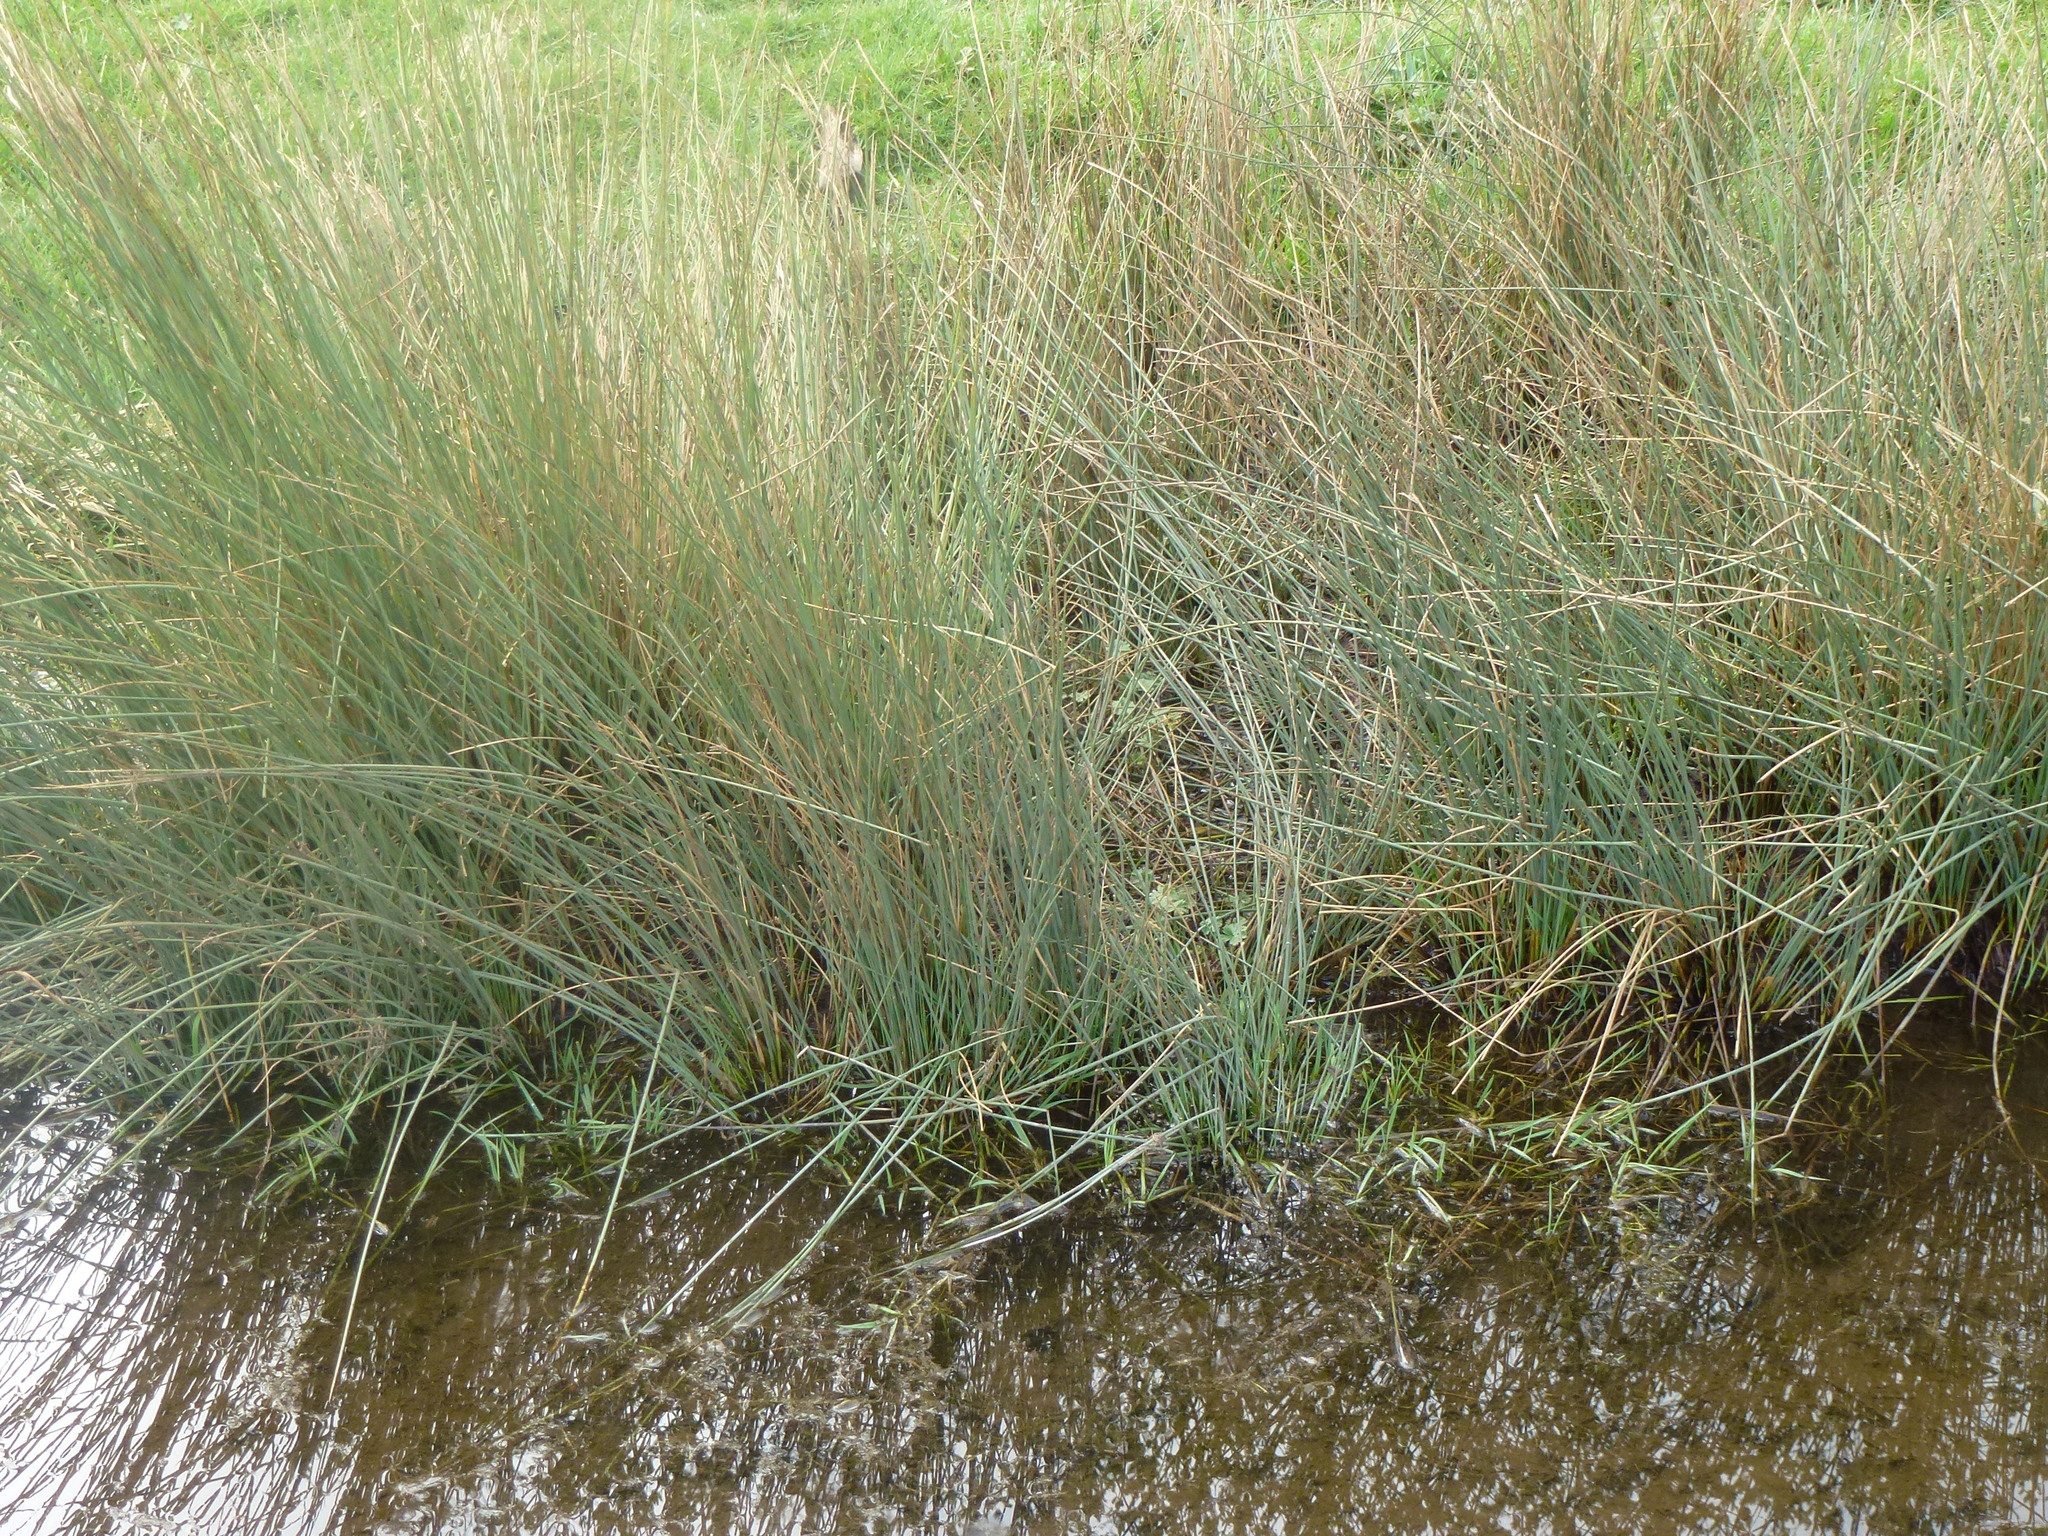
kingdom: Plantae
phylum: Tracheophyta
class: Liliopsida
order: Poales
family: Juncaceae
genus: Juncus
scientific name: Juncus inflexus
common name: Hard rush
